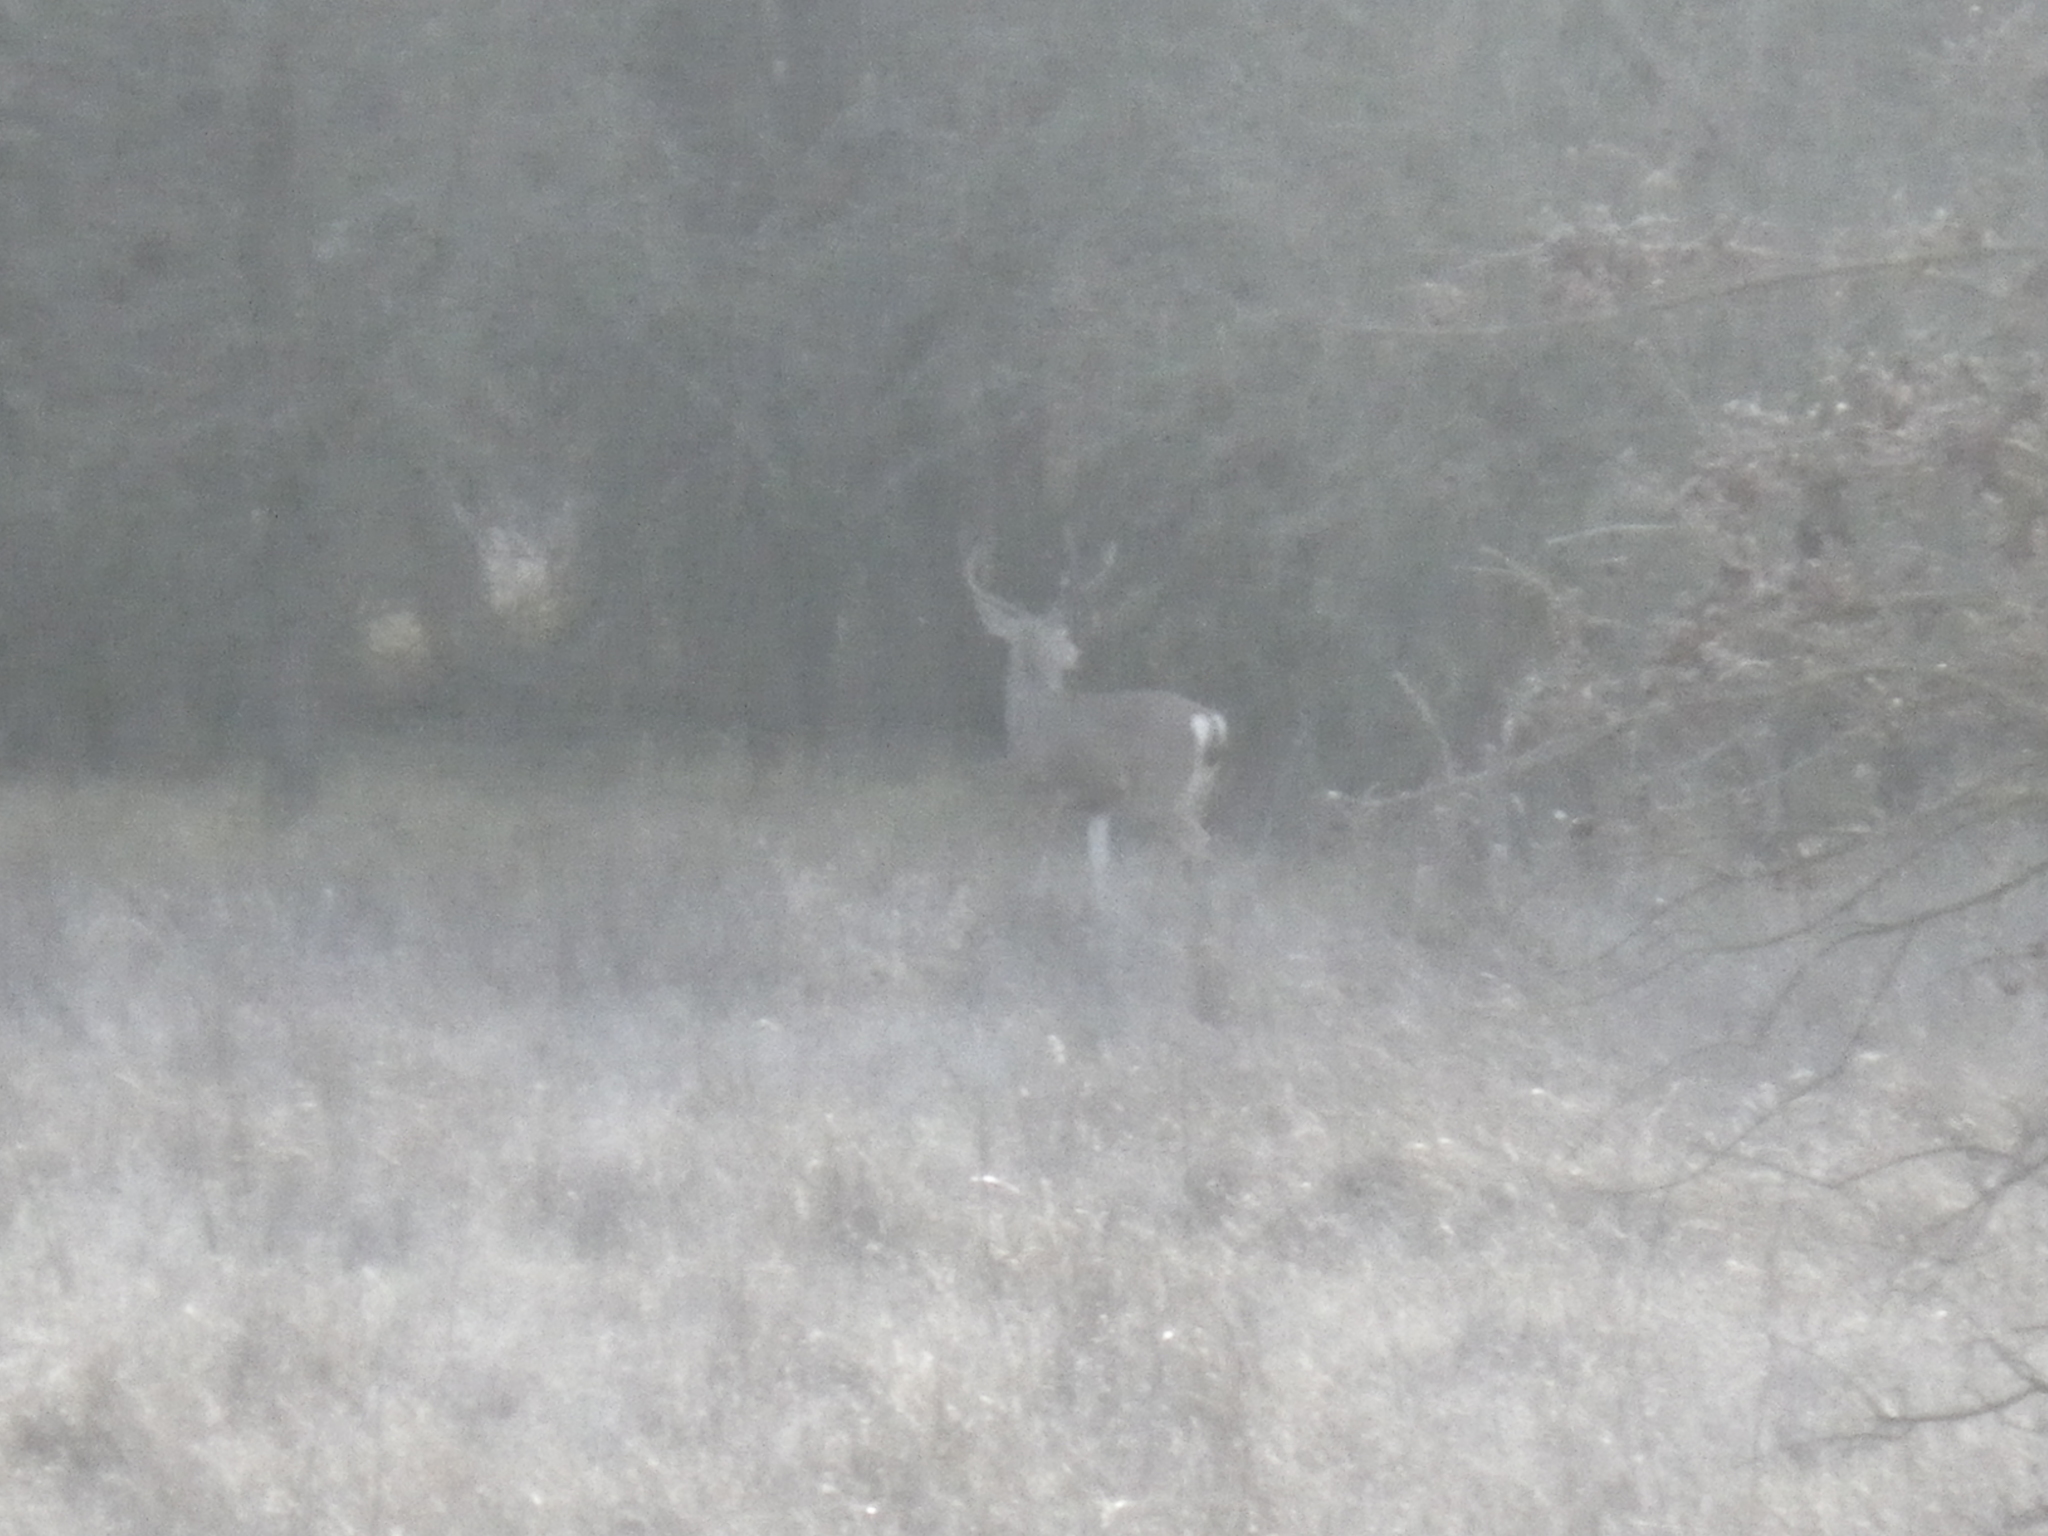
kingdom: Animalia
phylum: Chordata
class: Mammalia
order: Artiodactyla
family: Cervidae
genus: Odocoileus
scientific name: Odocoileus hemionus
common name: Mule deer
